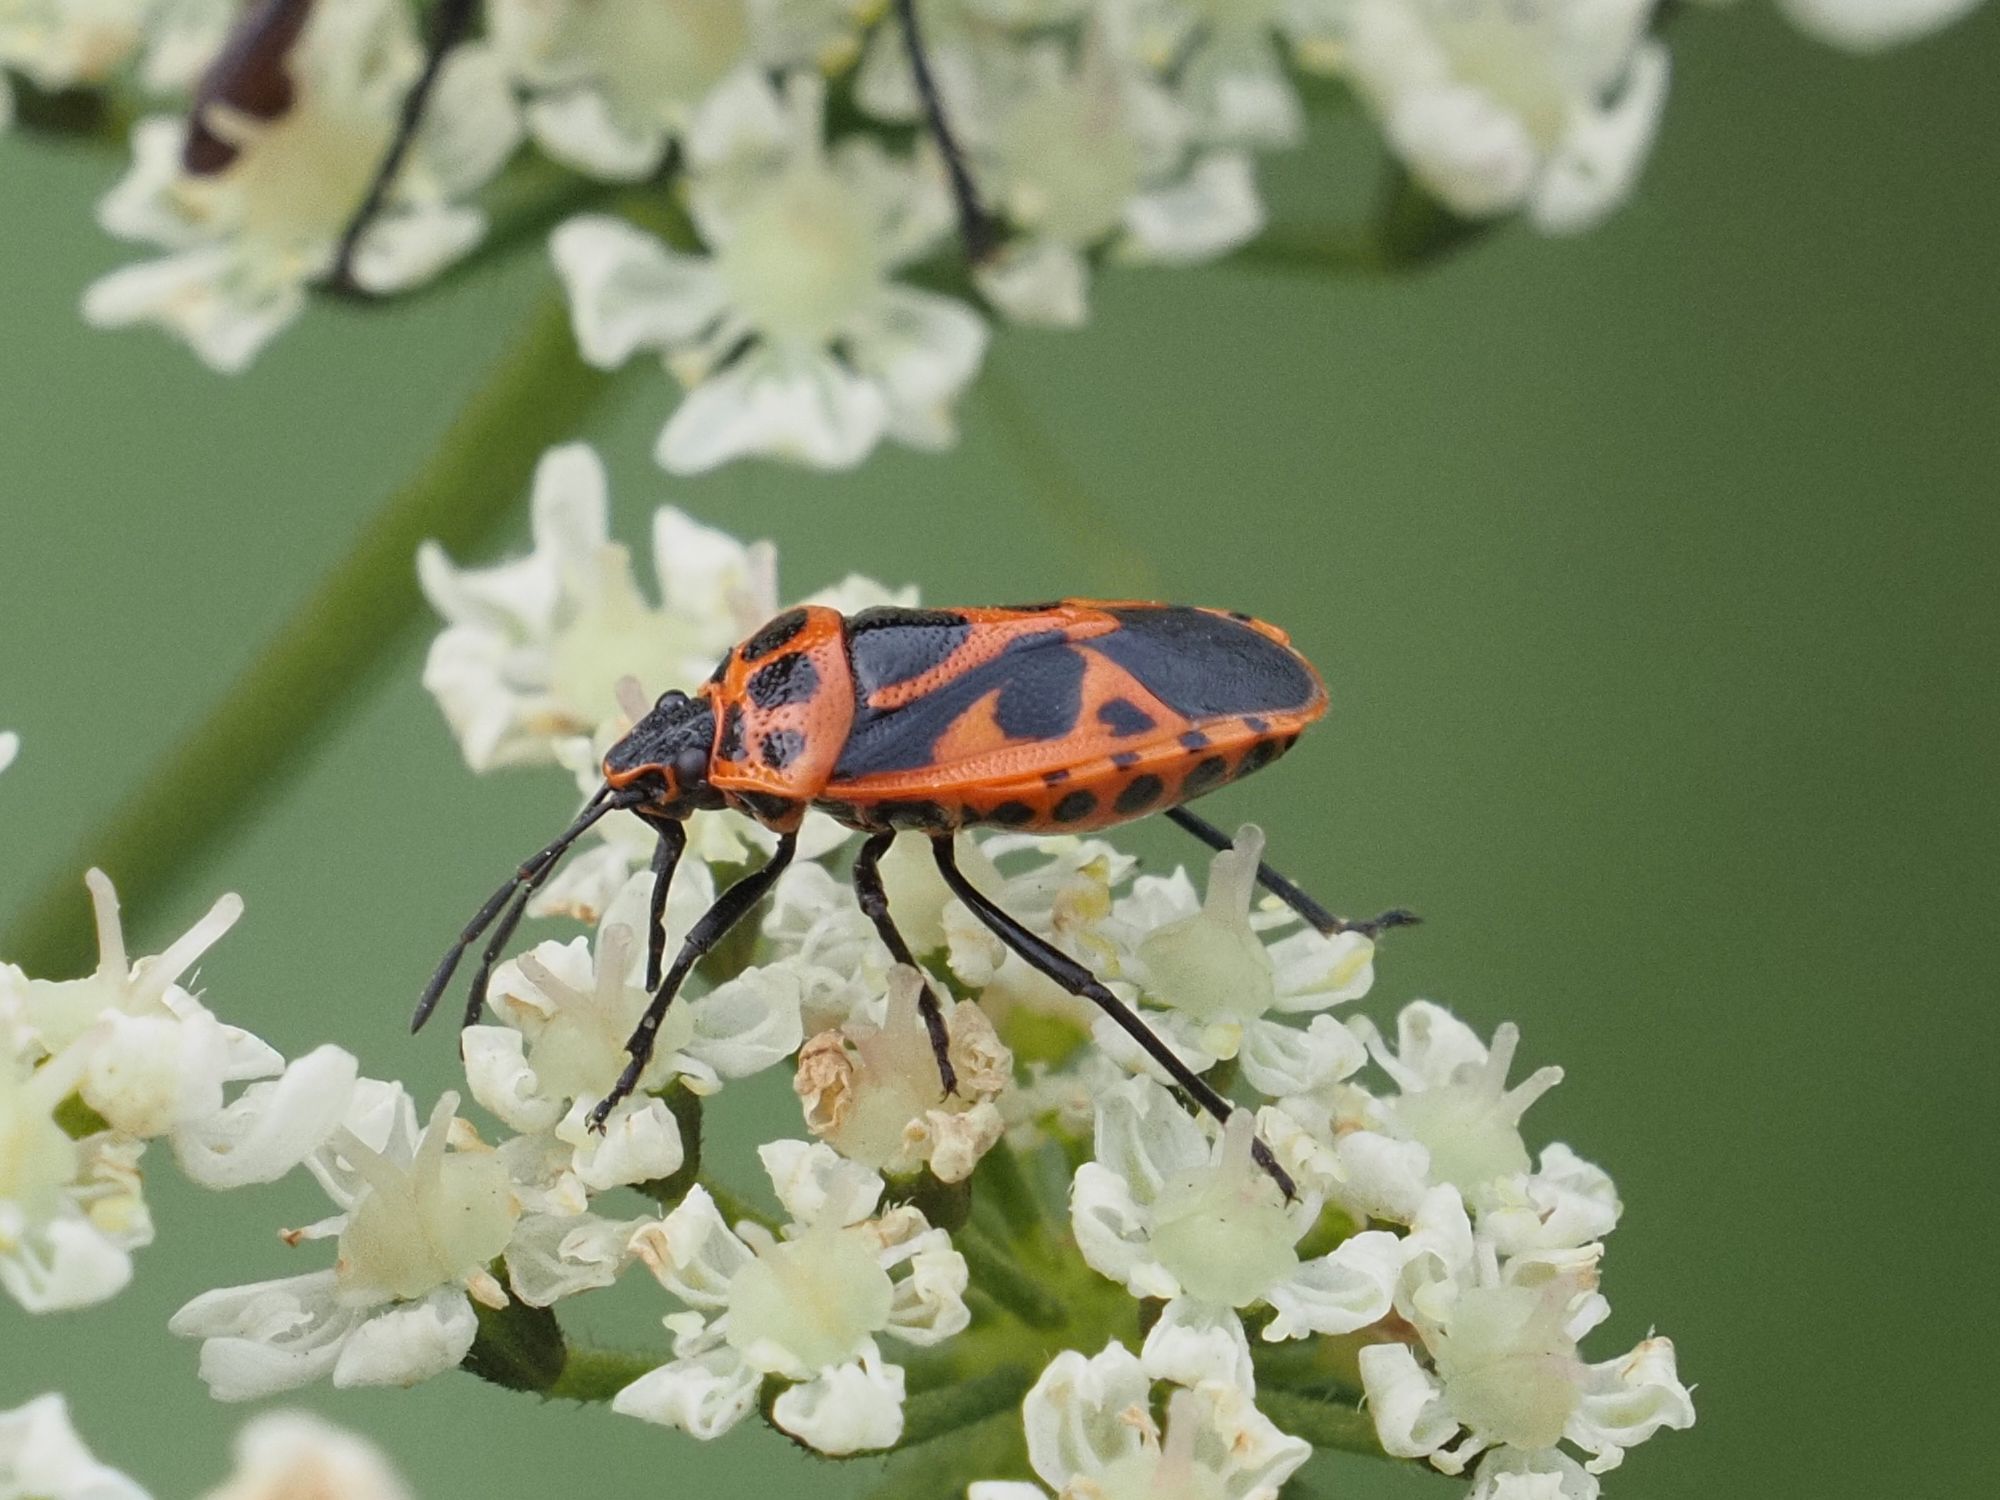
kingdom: Animalia
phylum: Arthropoda
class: Insecta
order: Hemiptera
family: Pentatomidae
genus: Eurydema
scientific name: Eurydema dominulus
